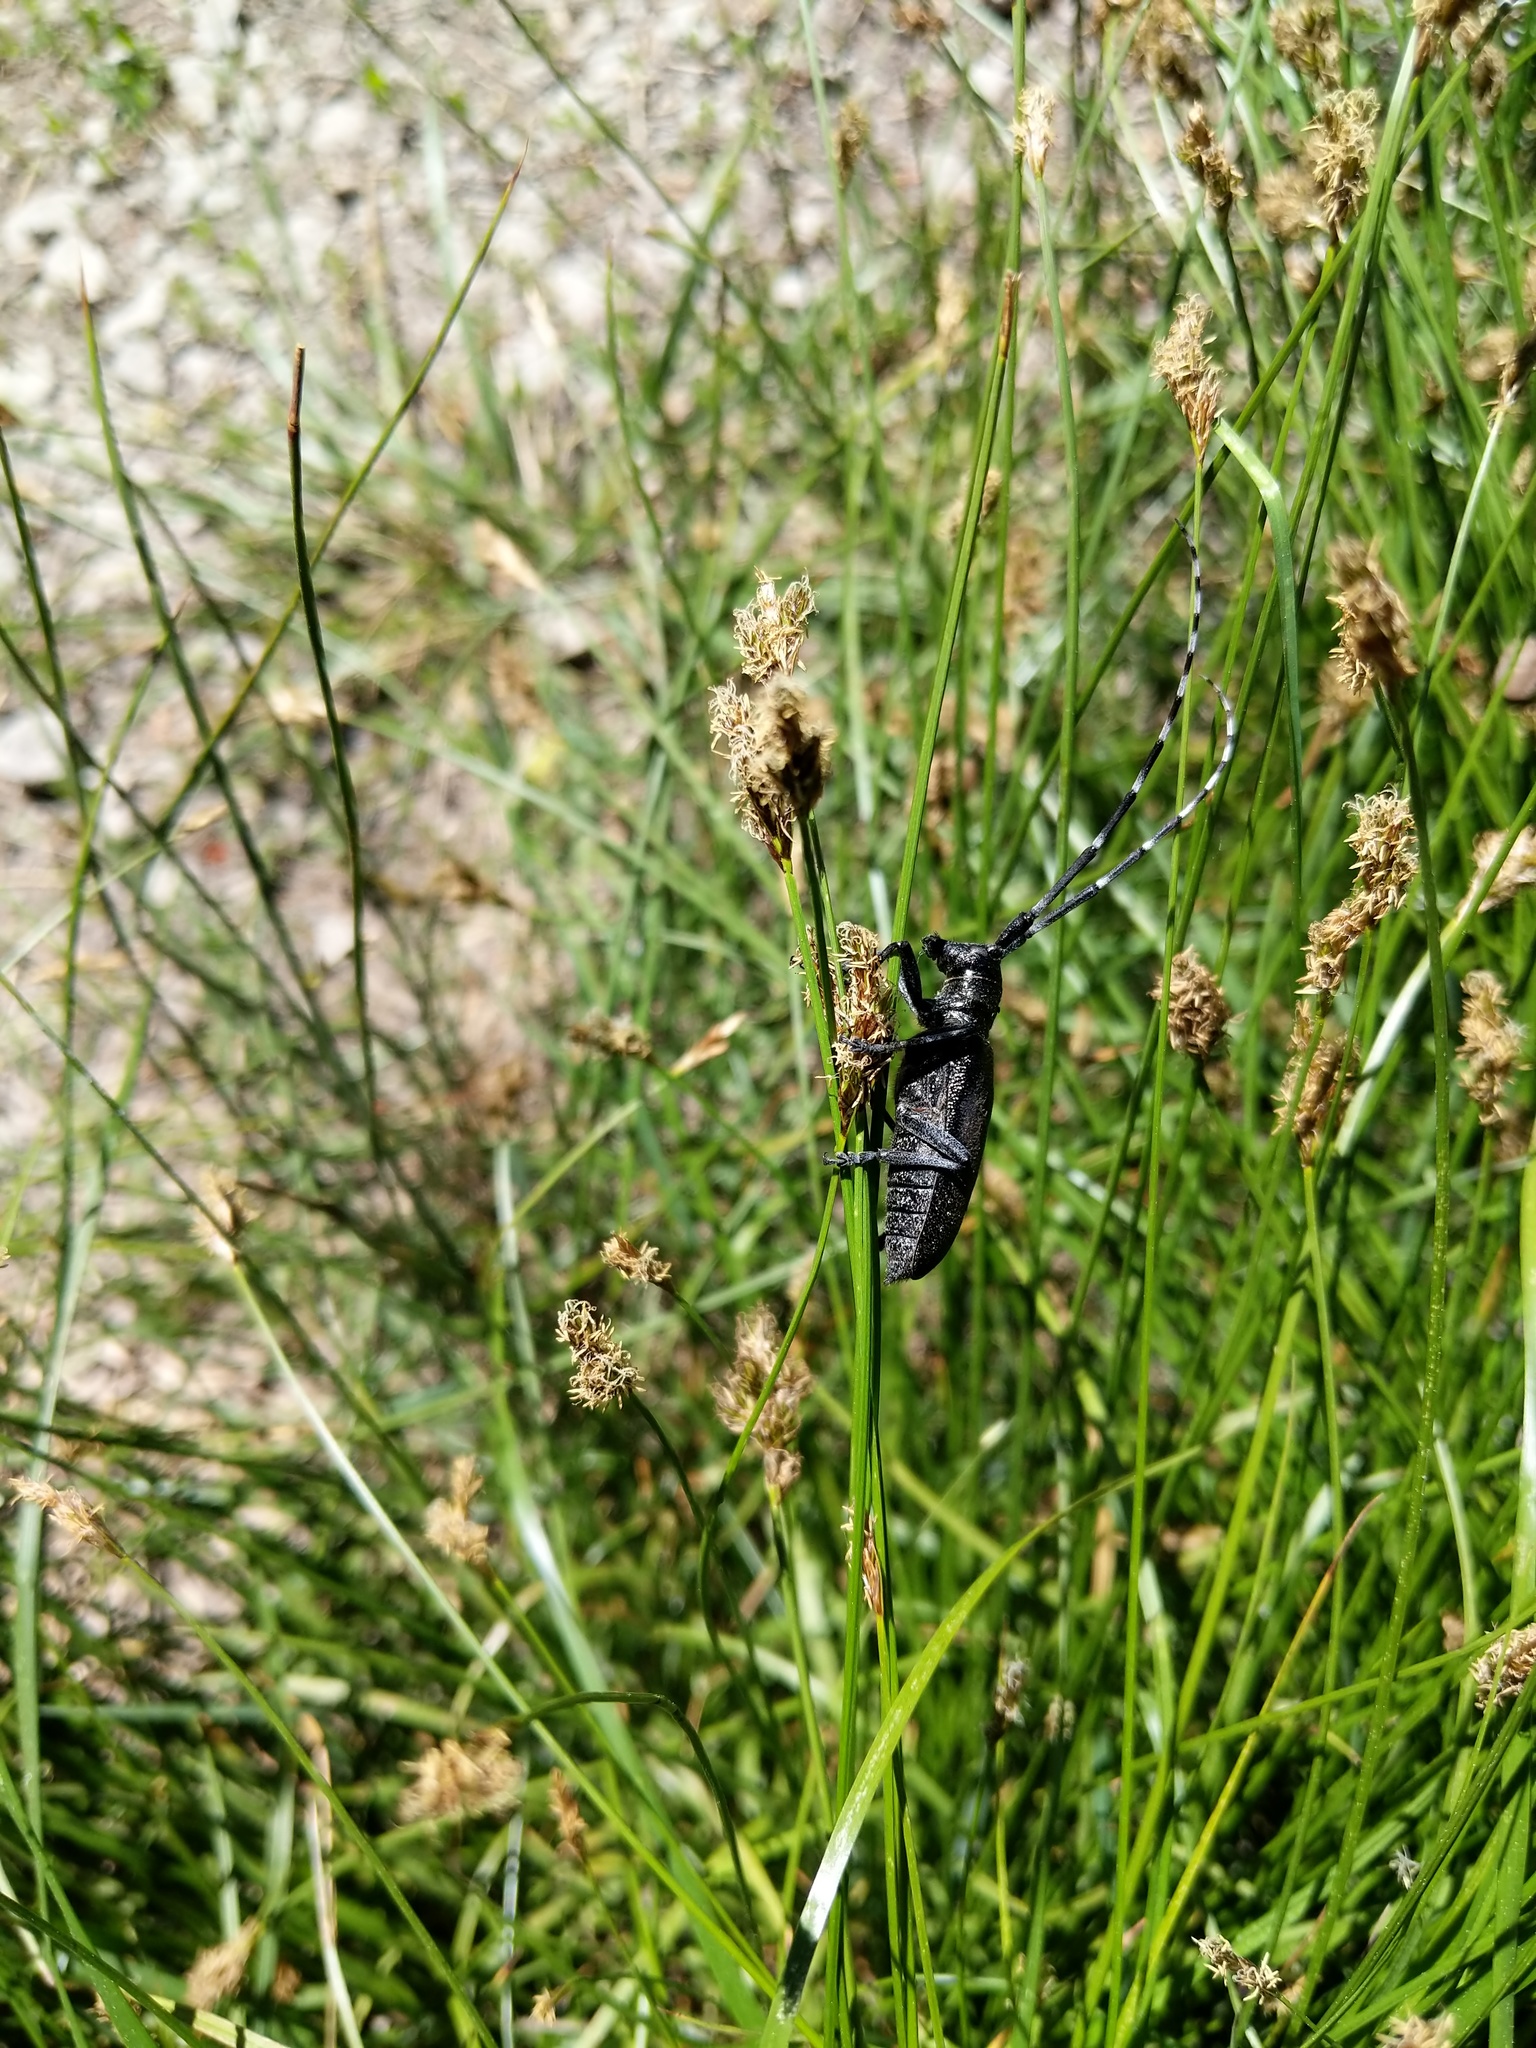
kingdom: Animalia
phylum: Arthropoda
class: Insecta
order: Coleoptera
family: Cerambycidae
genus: Monochamus
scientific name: Monochamus scutellatus
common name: White-spotted sawyer beetle
